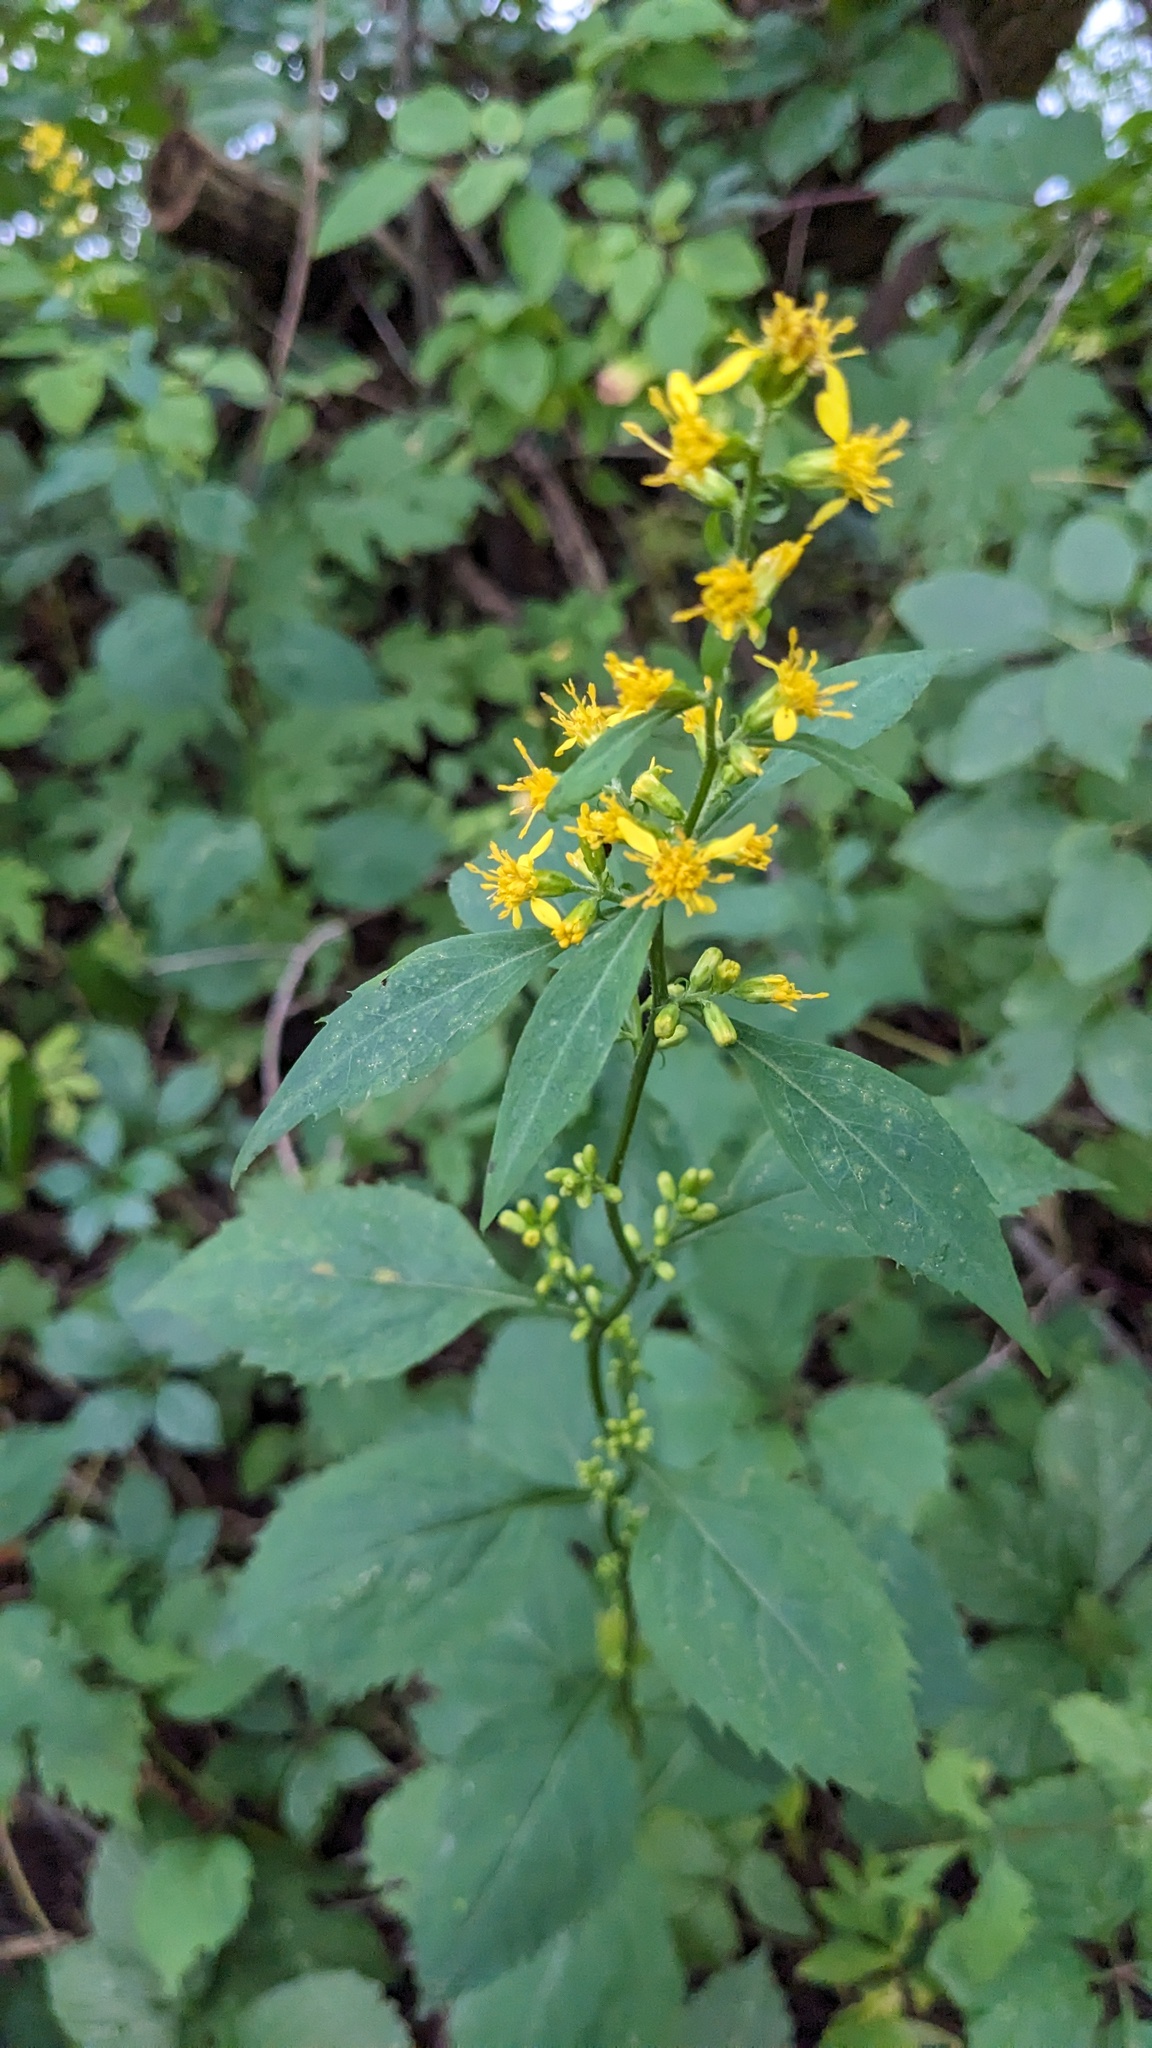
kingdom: Plantae
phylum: Tracheophyta
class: Magnoliopsida
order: Asterales
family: Asteraceae
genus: Solidago
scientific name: Solidago flexicaulis
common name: Zig-zag goldenrod
